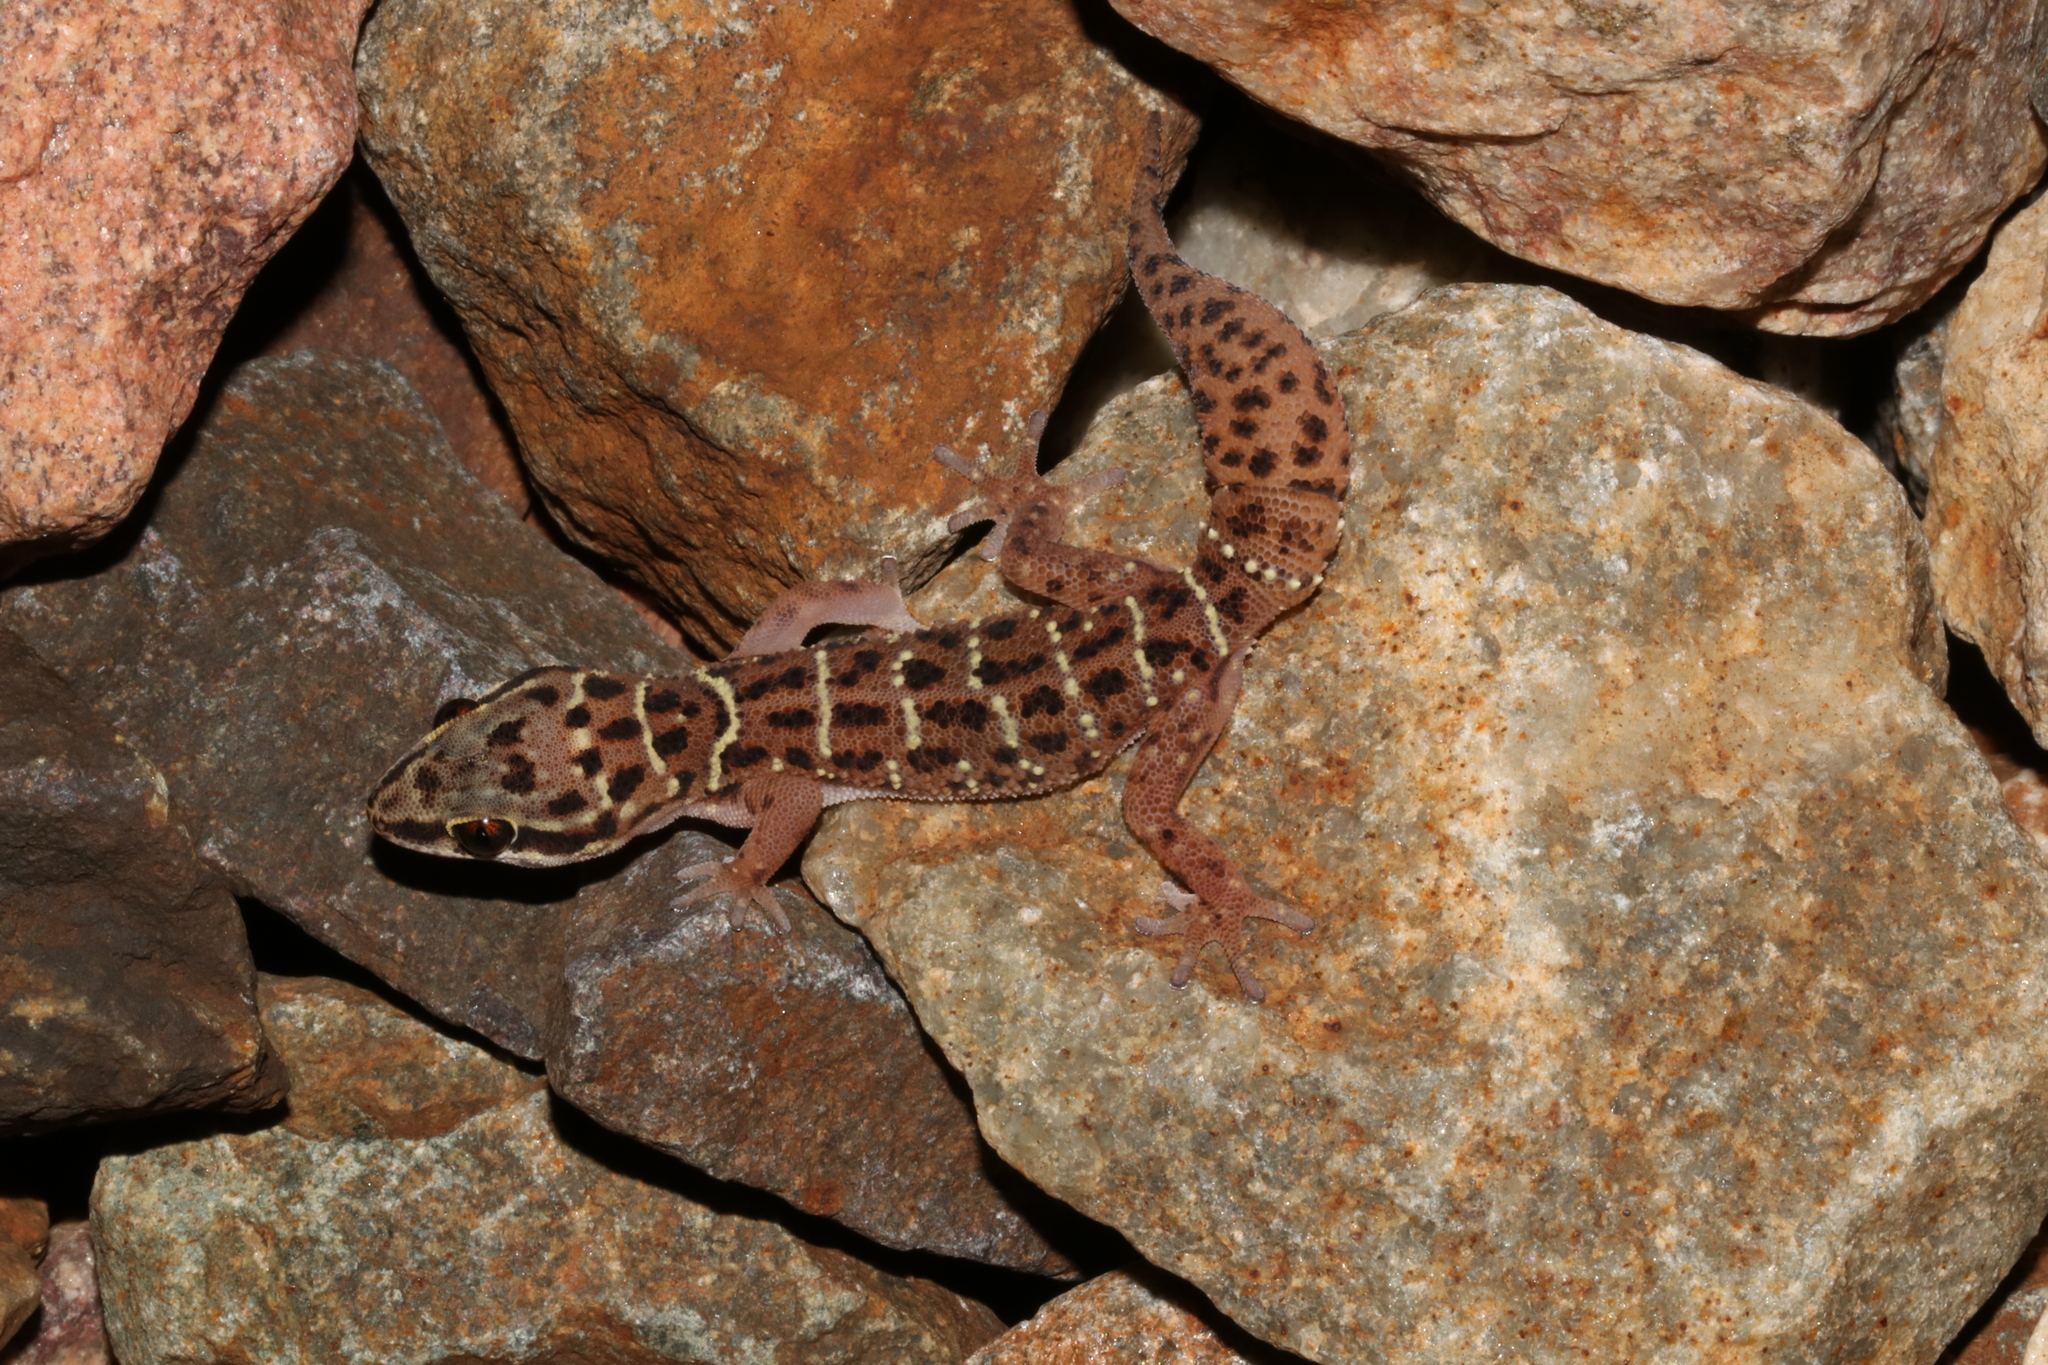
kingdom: Animalia
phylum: Chordata
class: Squamata
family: Gekkonidae
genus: Pachydactylus
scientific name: Pachydactylus affinis
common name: Transvaal gecko
